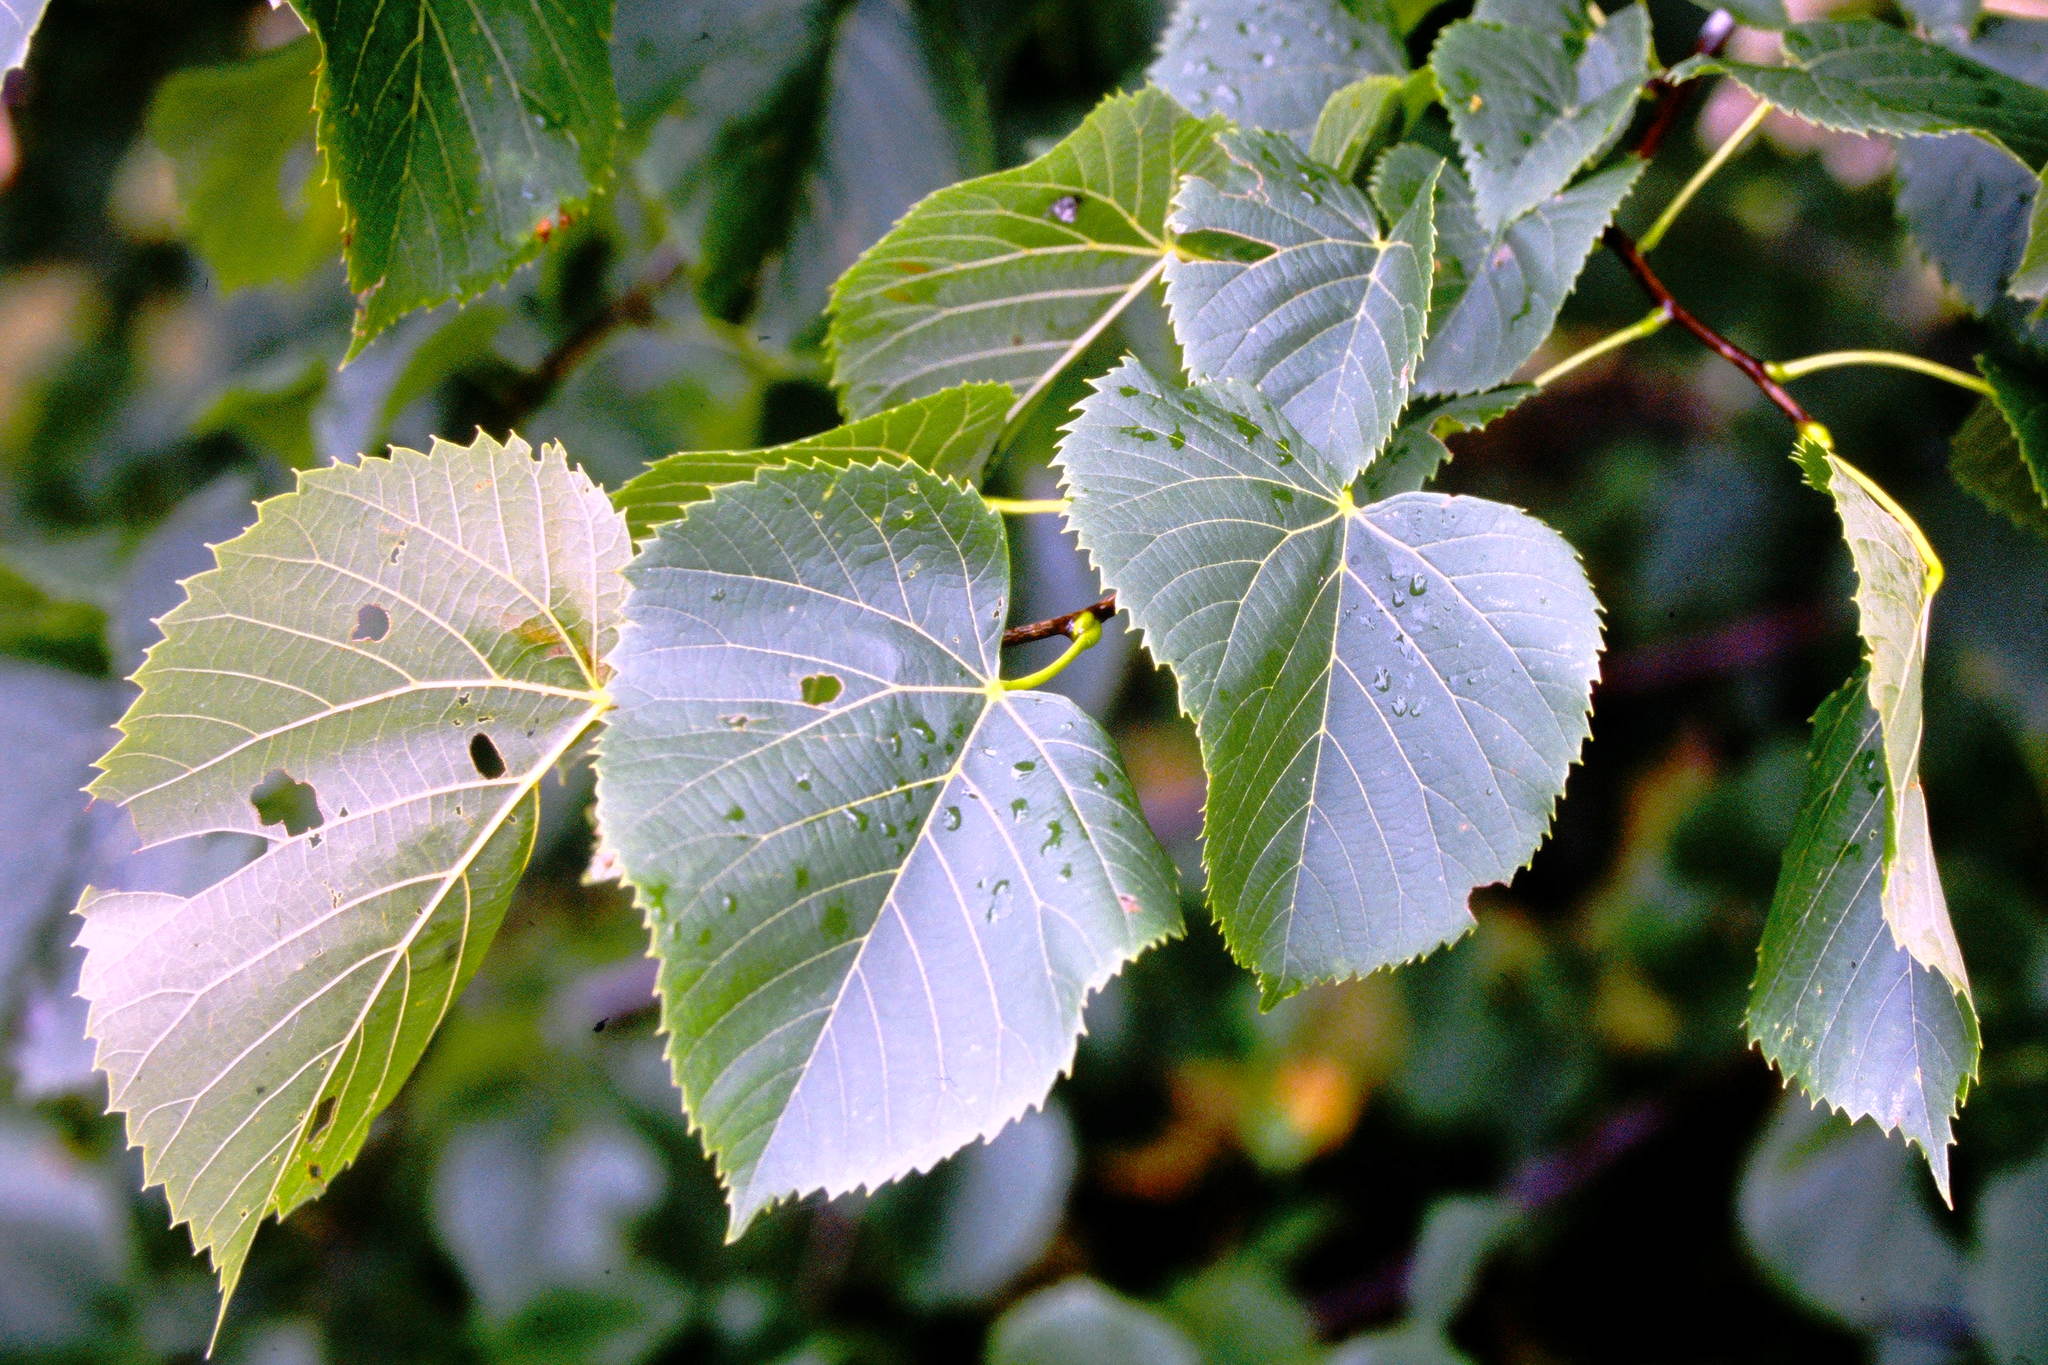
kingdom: Plantae
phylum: Tracheophyta
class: Magnoliopsida
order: Malvales
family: Malvaceae
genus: Tilia
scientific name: Tilia americana
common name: Basswood
